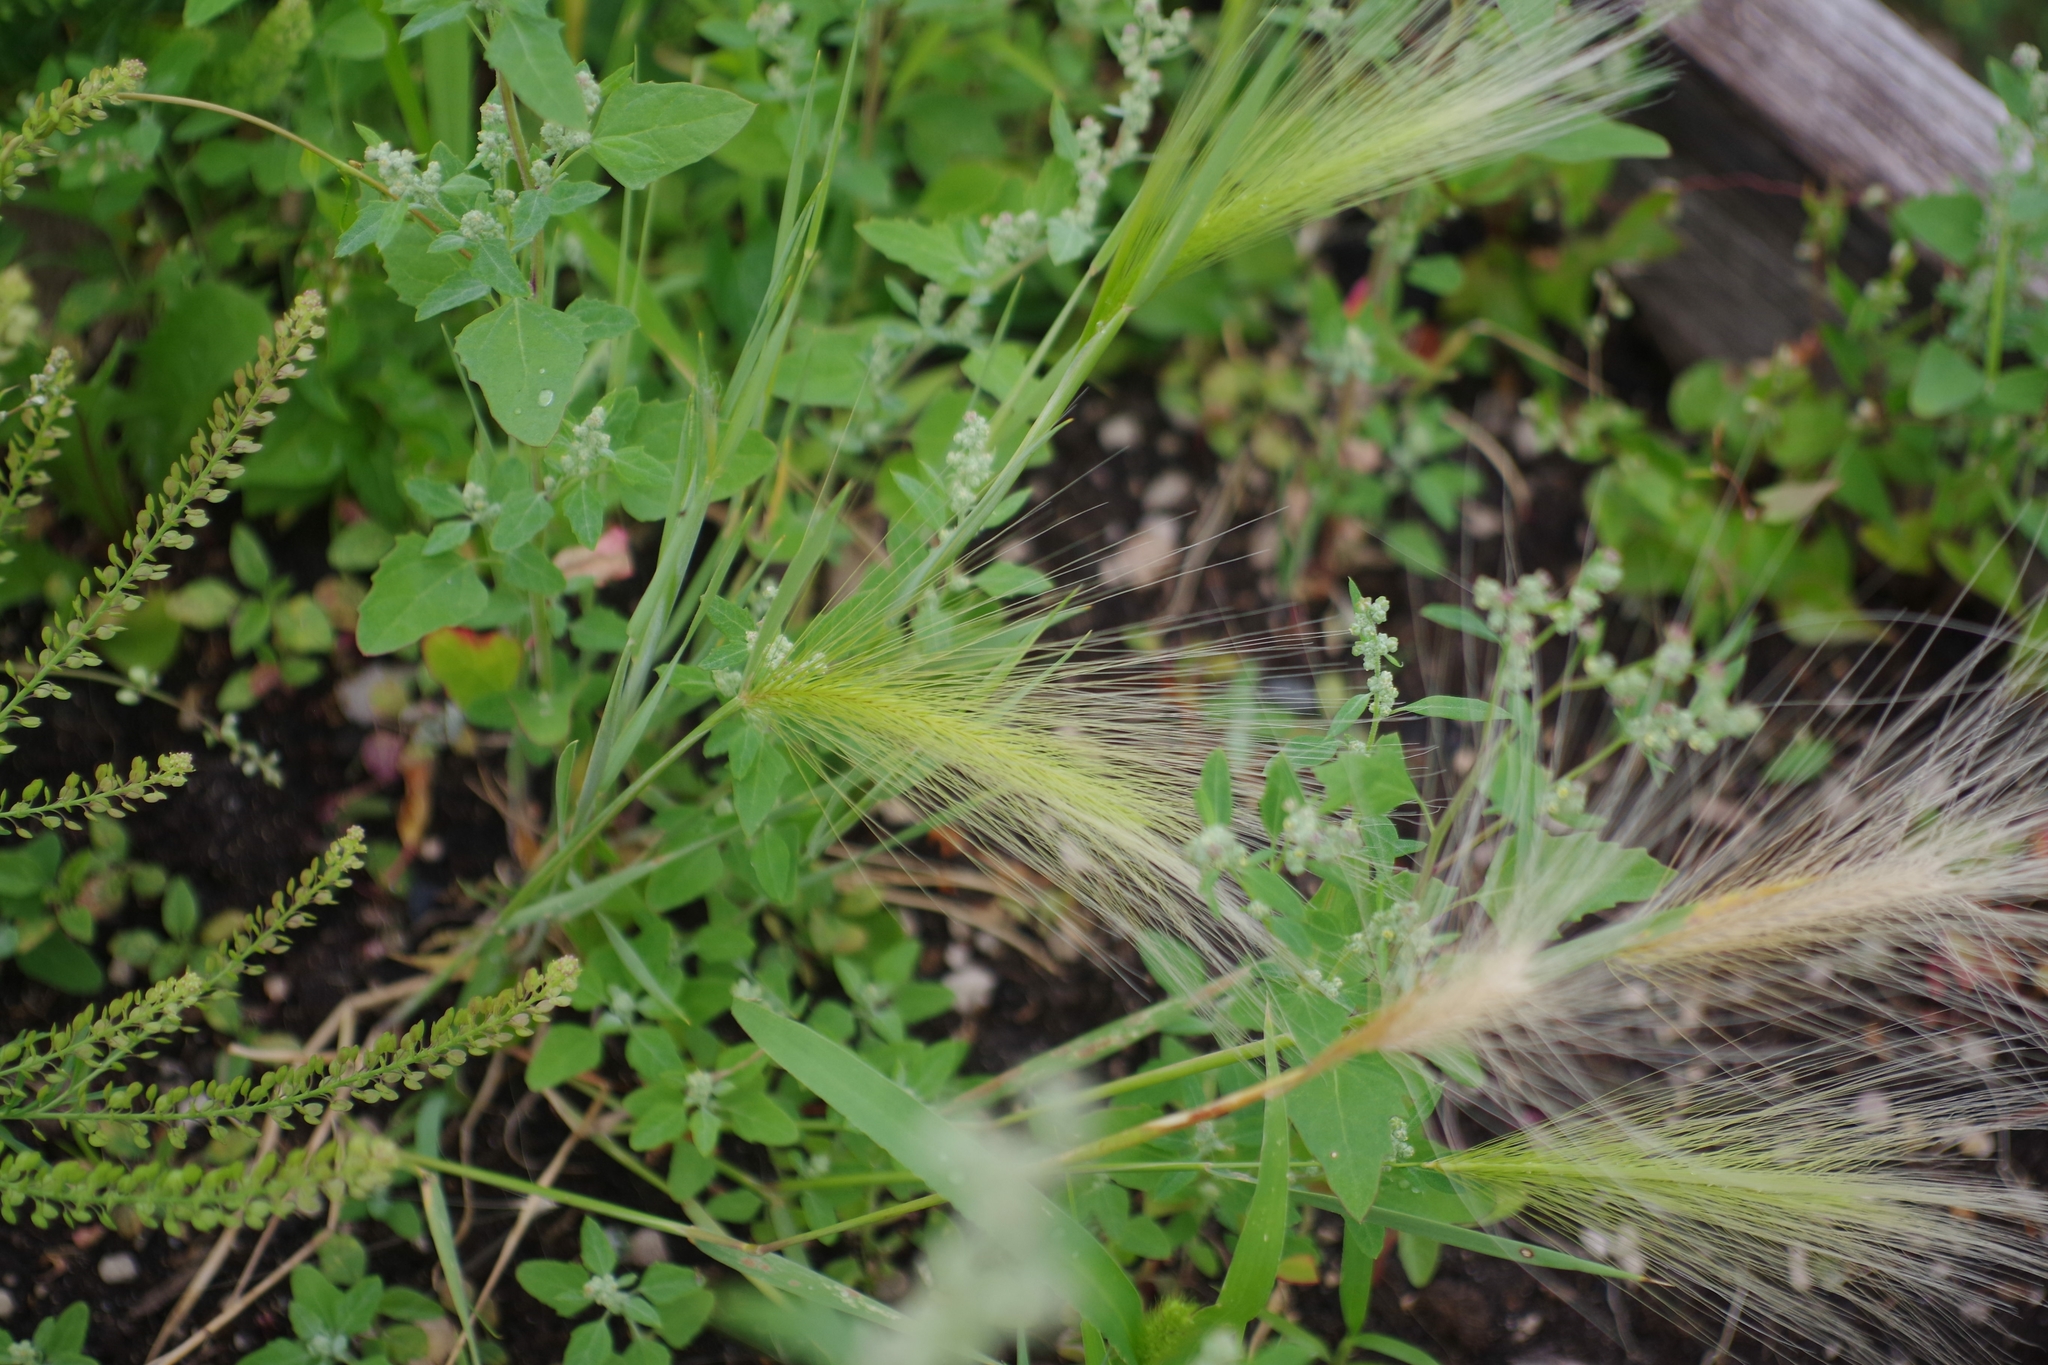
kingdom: Plantae
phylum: Tracheophyta
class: Liliopsida
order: Poales
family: Poaceae
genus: Hordeum
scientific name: Hordeum jubatum
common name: Foxtail barley
